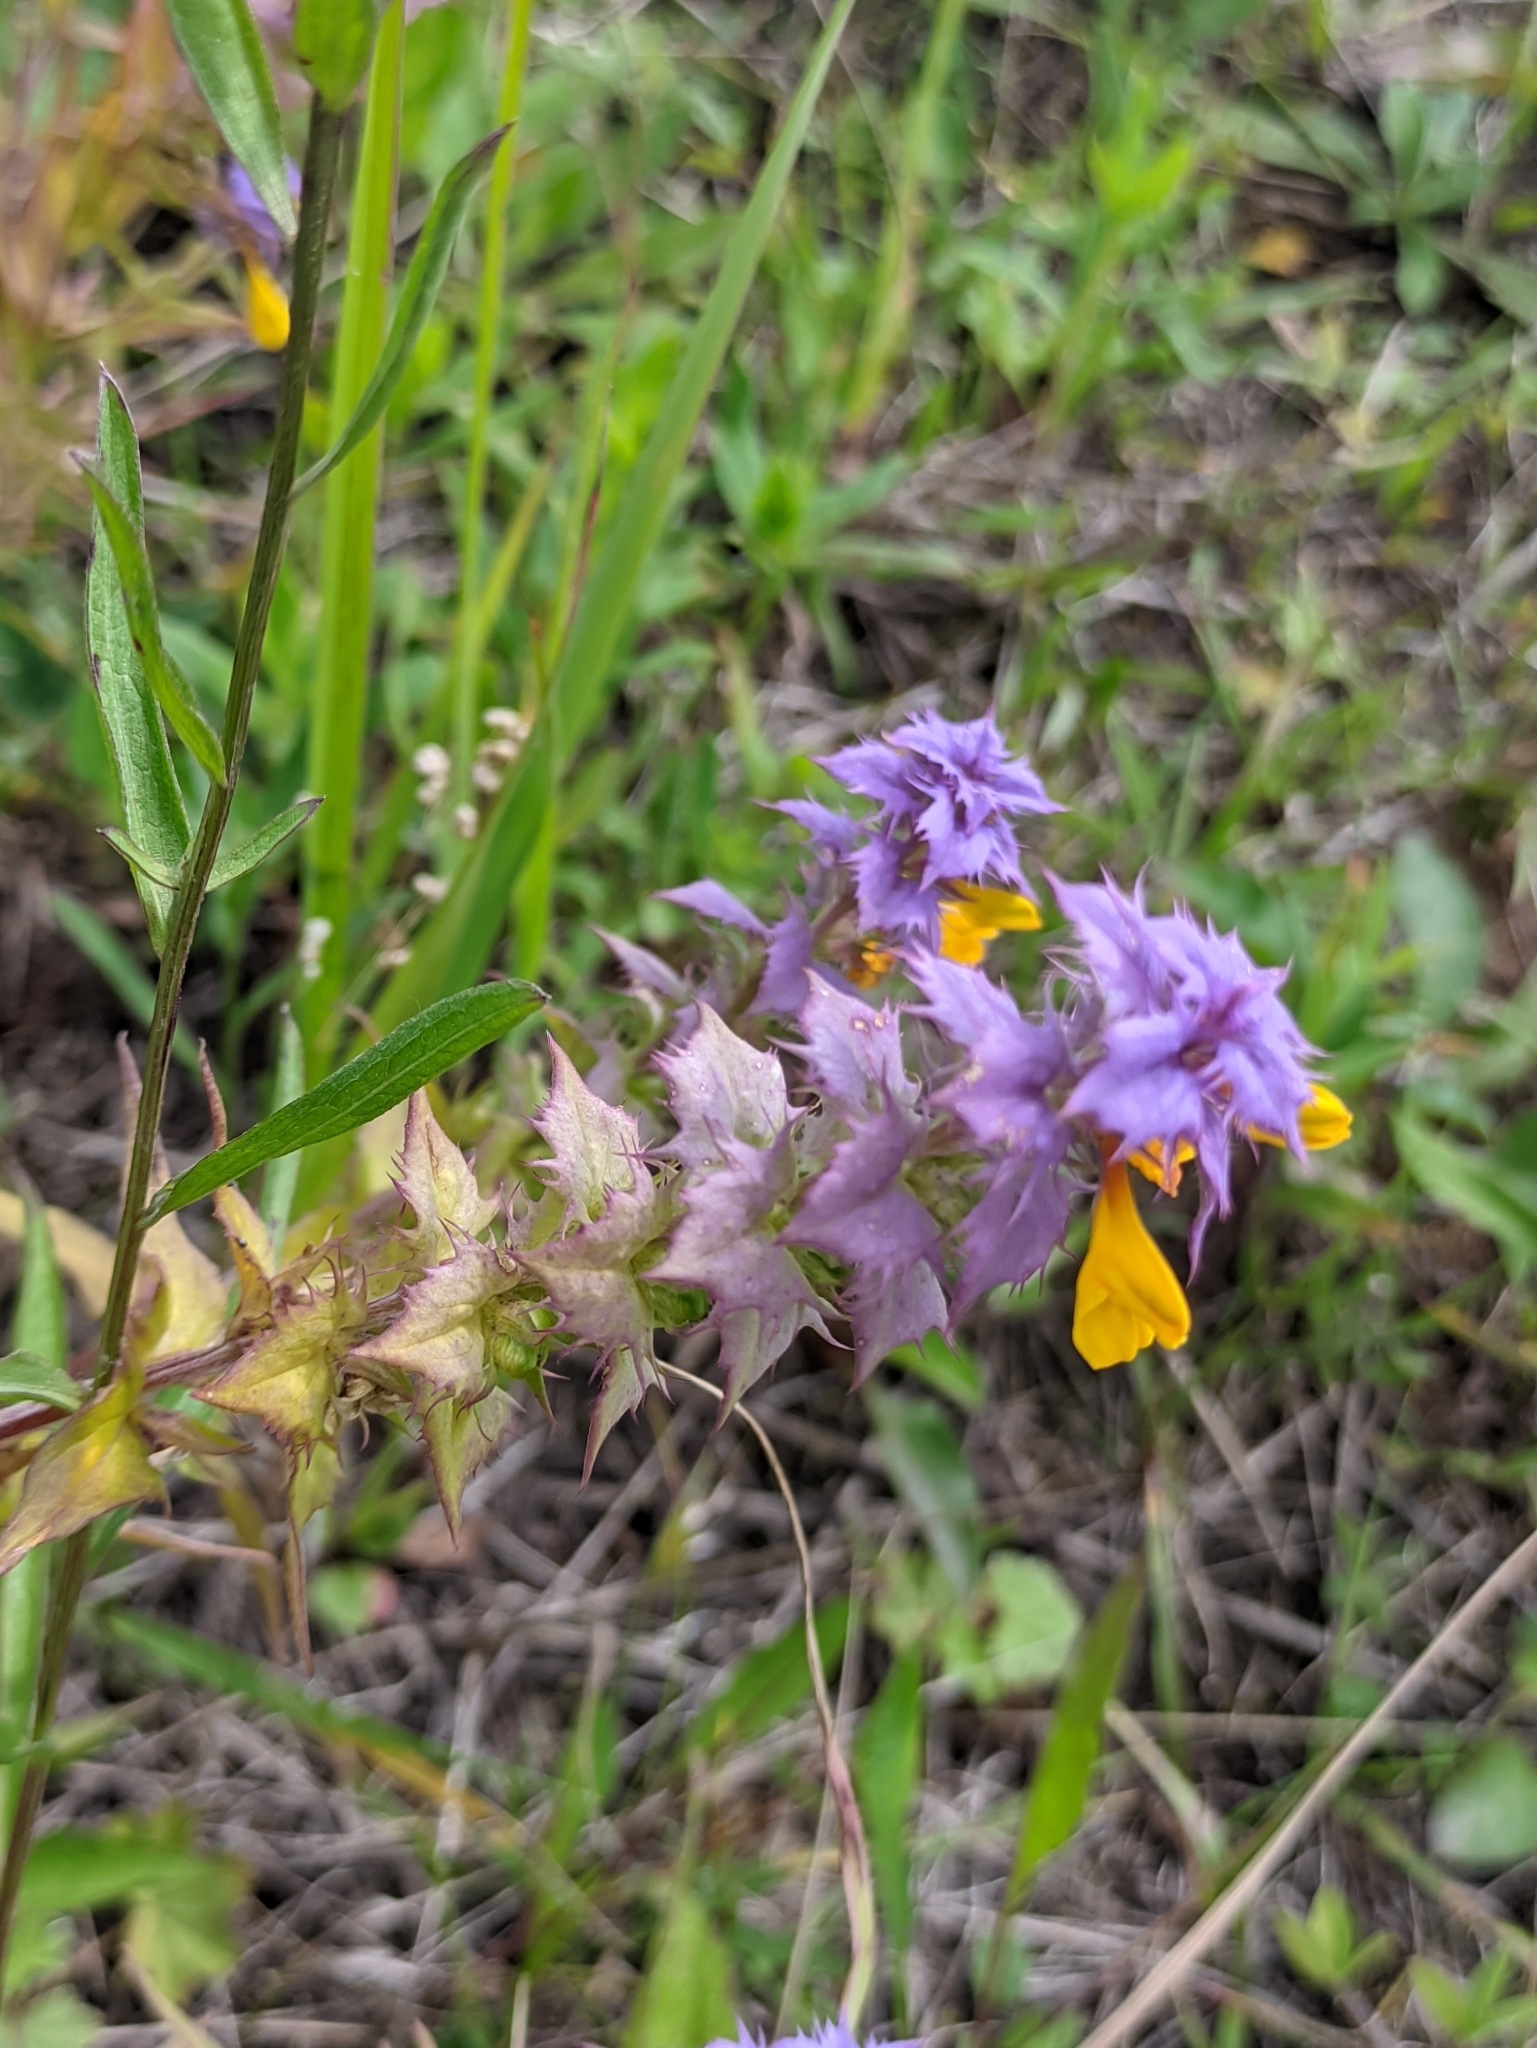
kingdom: Plantae
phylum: Tracheophyta
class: Magnoliopsida
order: Lamiales
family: Orobanchaceae
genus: Melampyrum
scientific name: Melampyrum nemorosum
